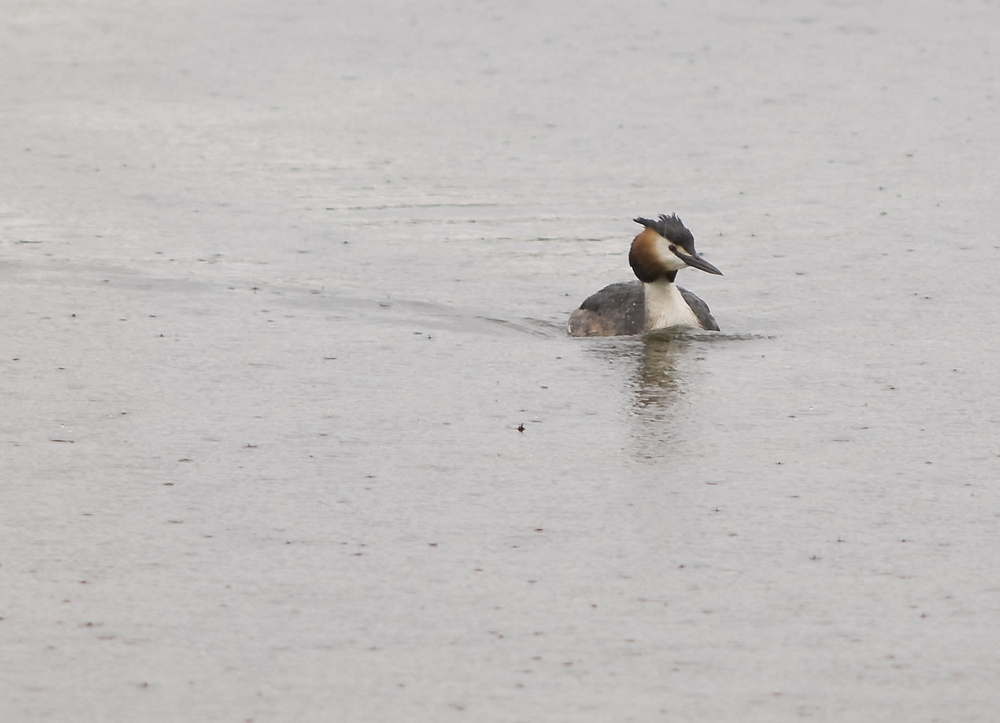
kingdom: Animalia
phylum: Chordata
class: Aves
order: Podicipediformes
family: Podicipedidae
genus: Podiceps
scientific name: Podiceps cristatus
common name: Great crested grebe
